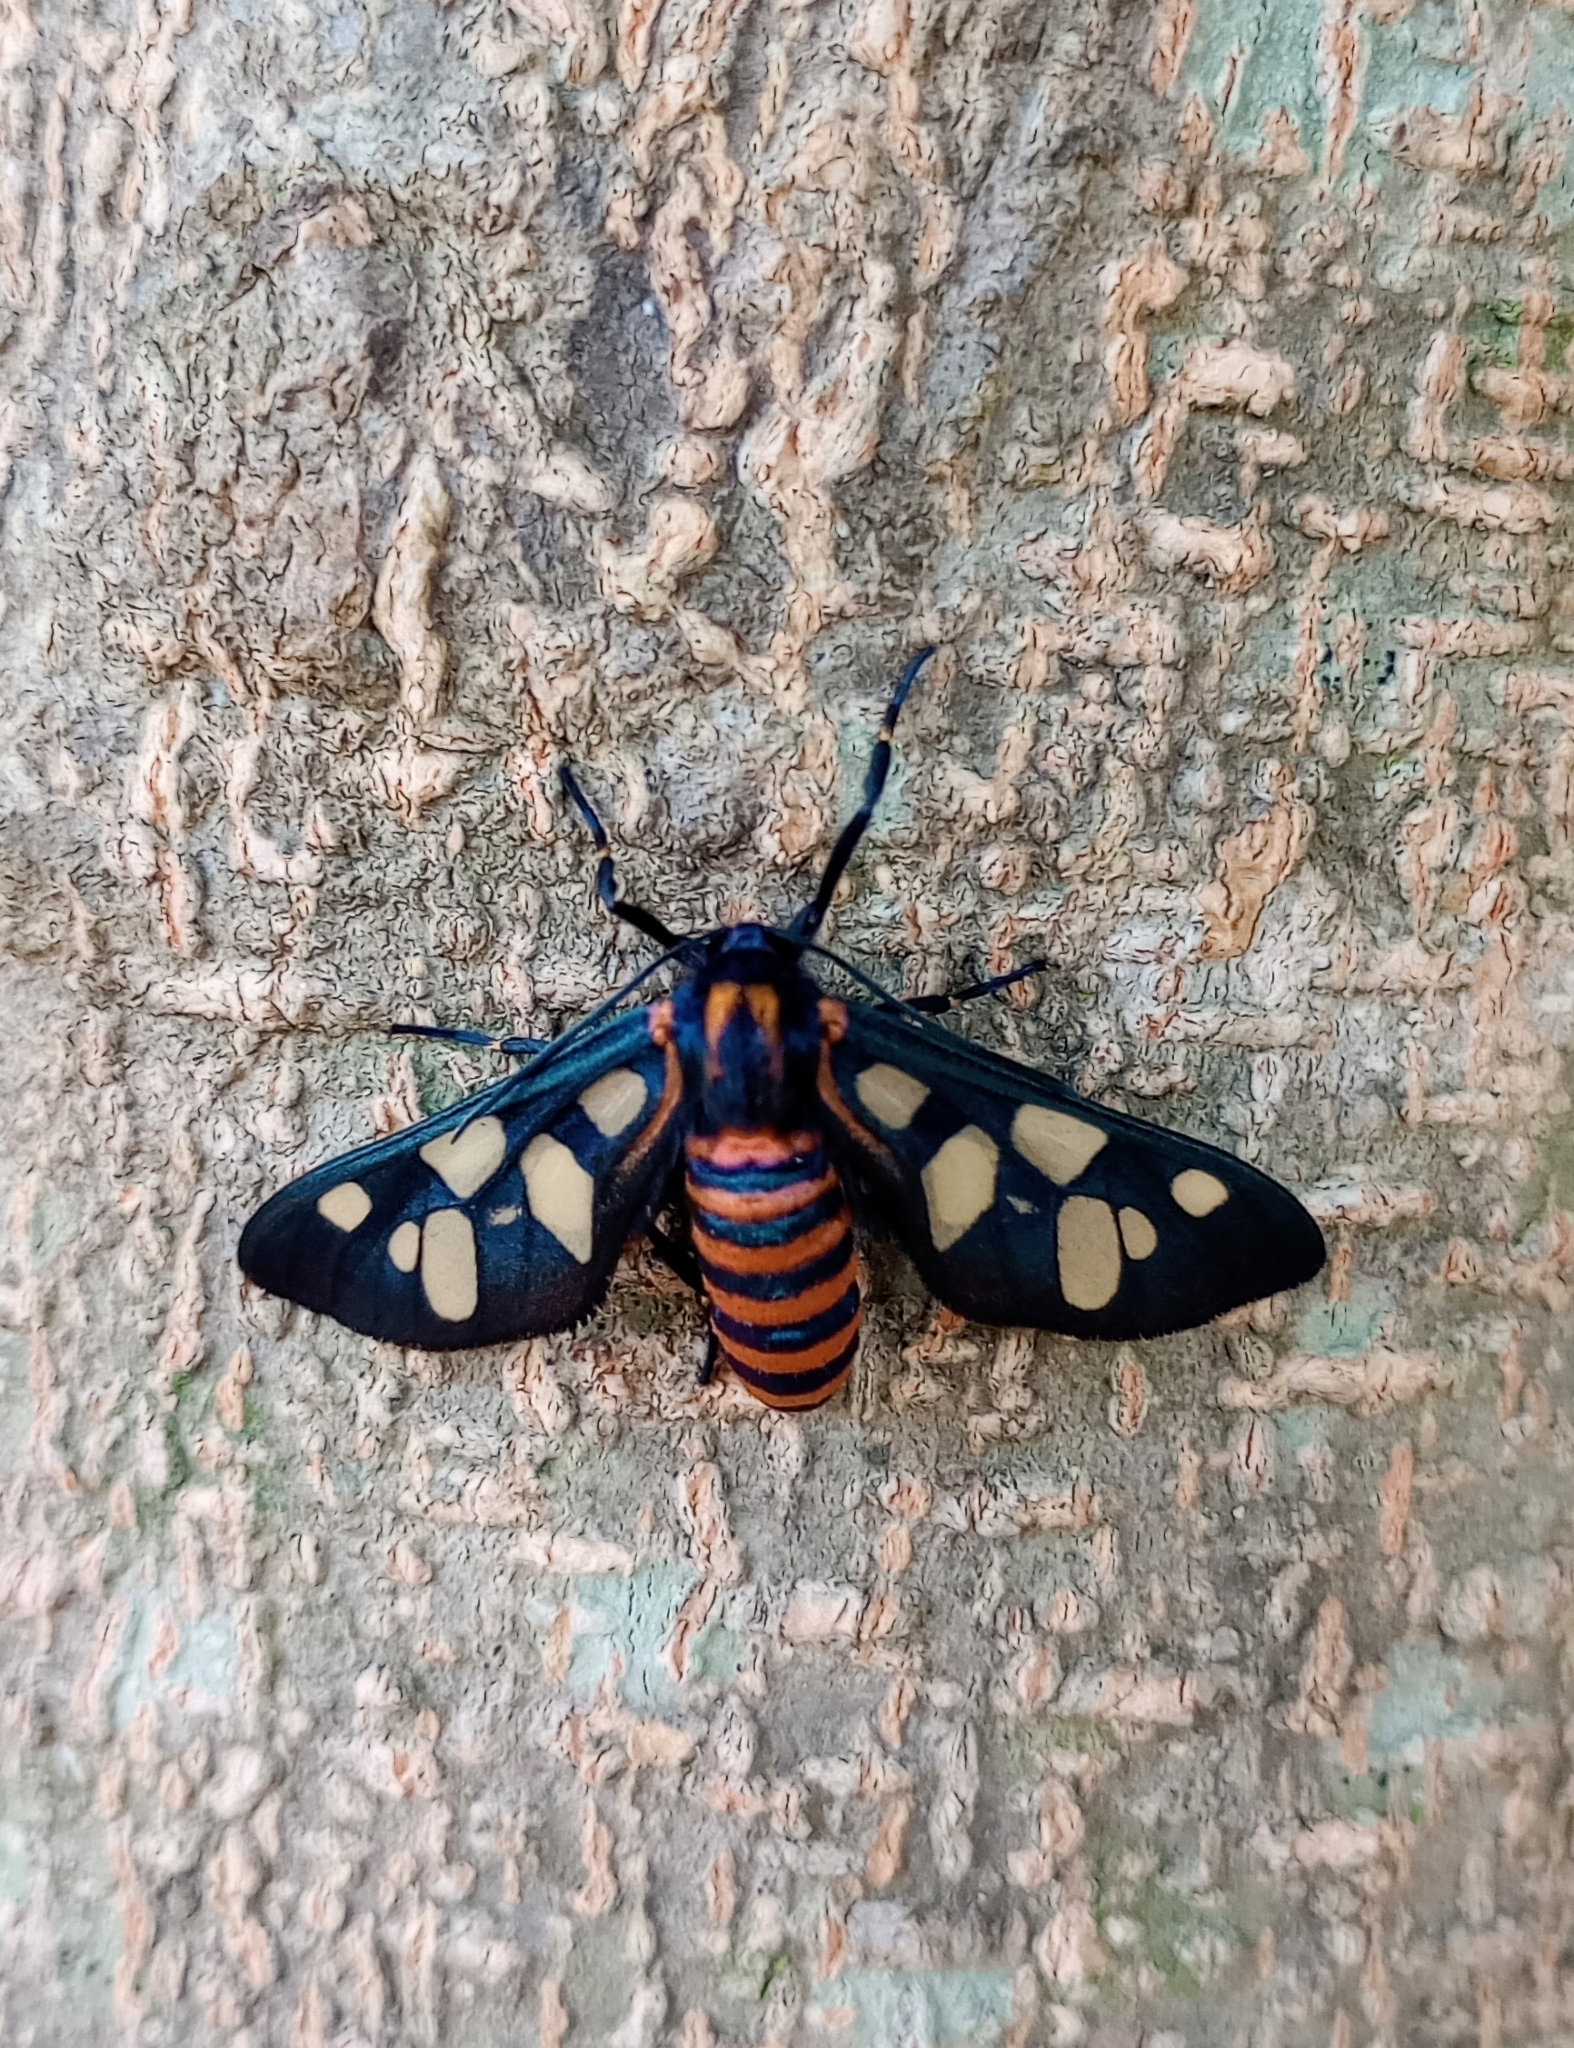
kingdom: Animalia
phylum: Arthropoda
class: Insecta
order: Lepidoptera
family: Erebidae
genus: Amata
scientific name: Amata passalis
